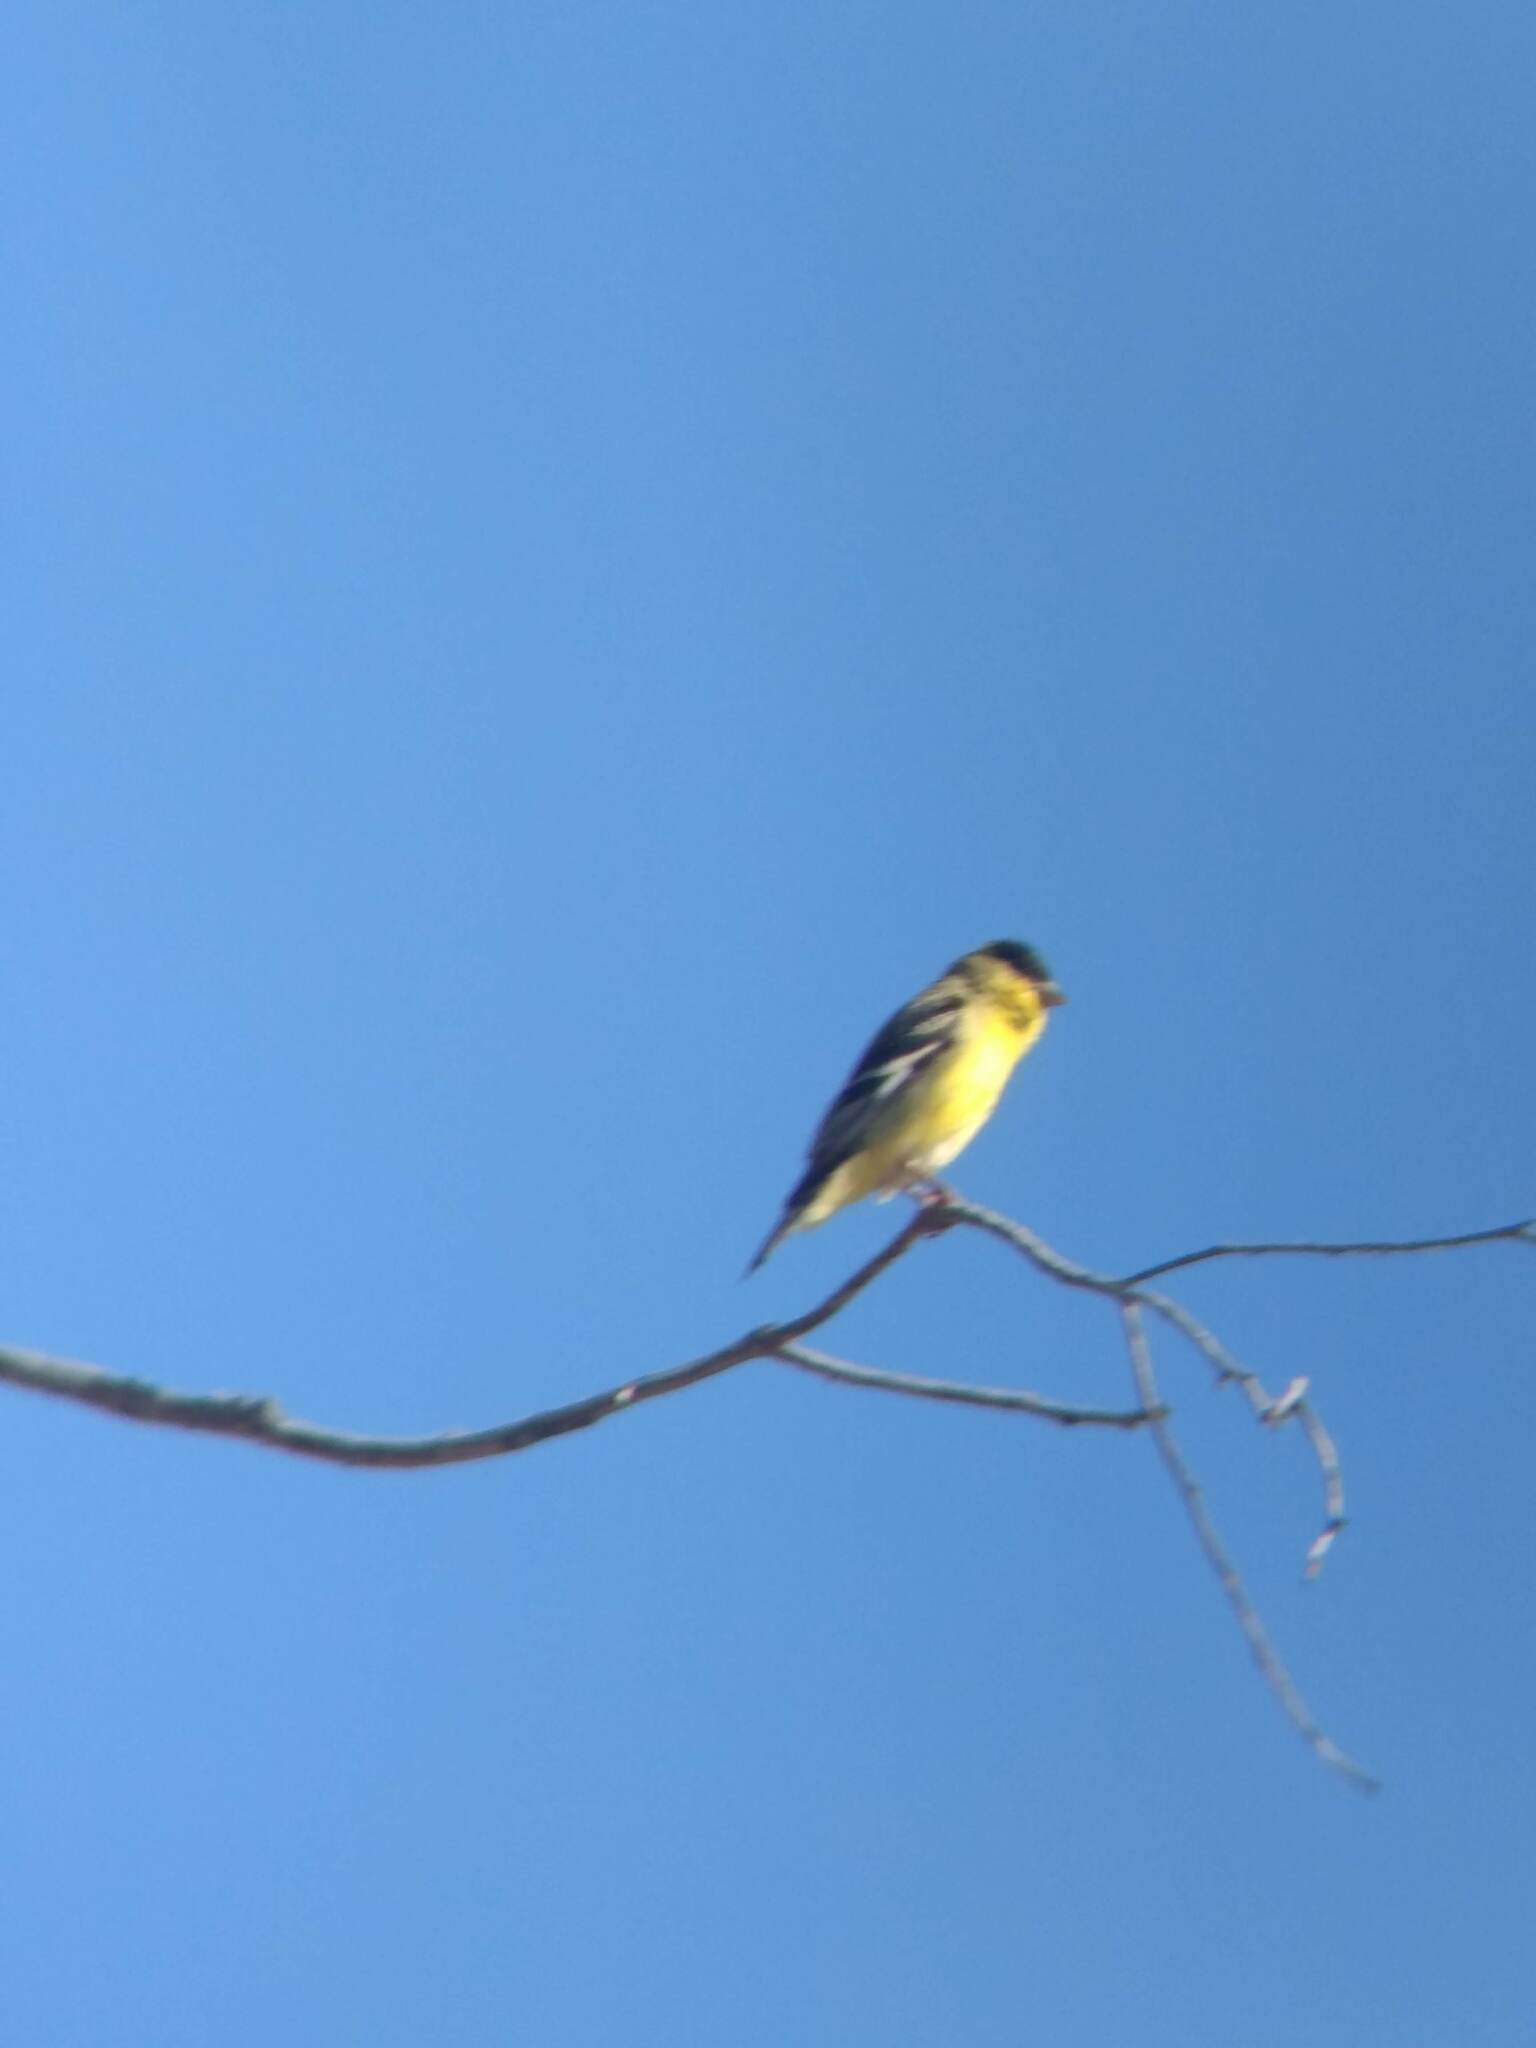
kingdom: Animalia
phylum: Chordata
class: Aves
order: Passeriformes
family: Fringillidae
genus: Spinus
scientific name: Spinus psaltria
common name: Lesser goldfinch
